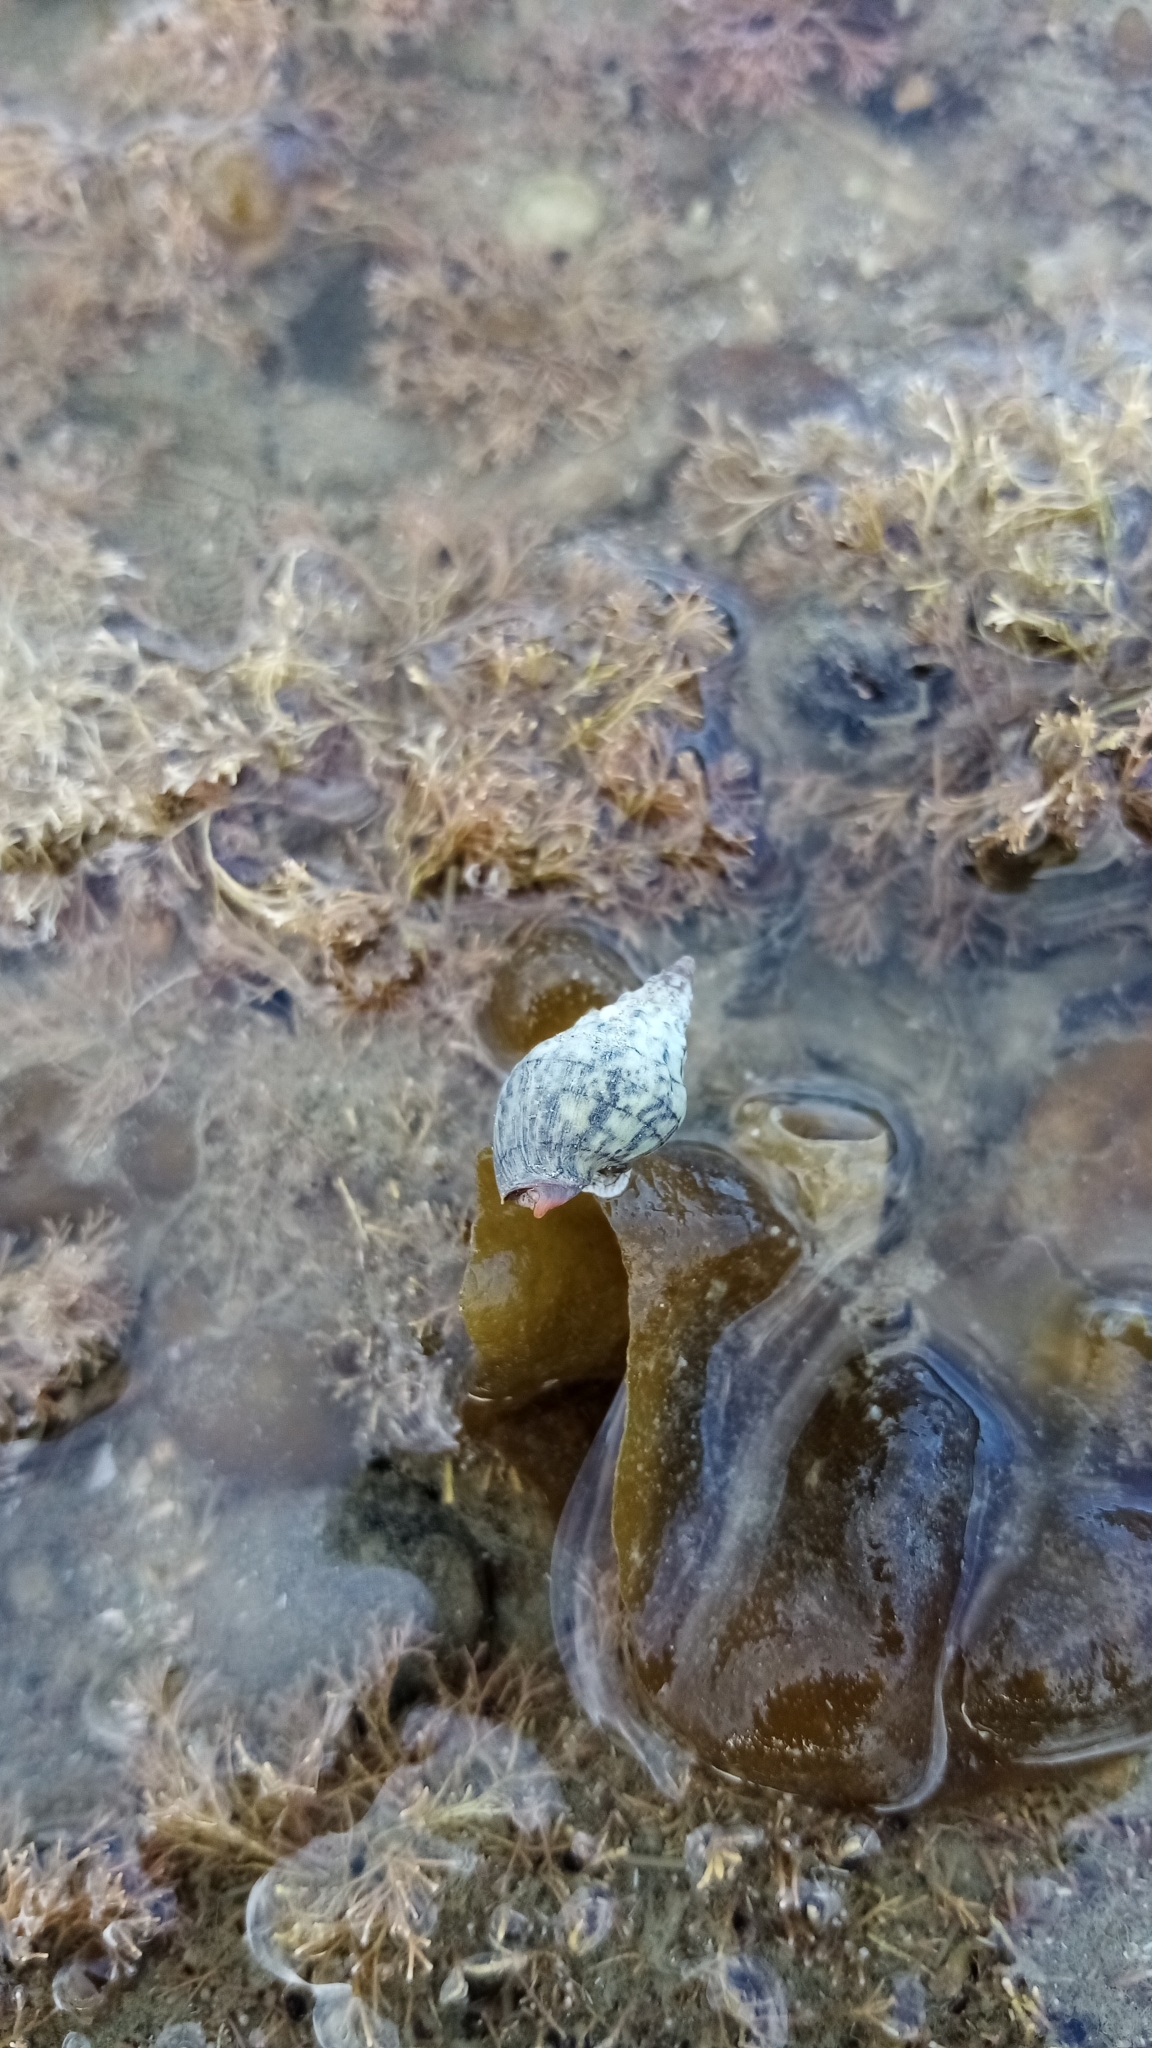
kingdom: Animalia
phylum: Mollusca
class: Gastropoda
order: Neogastropoda
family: Cominellidae
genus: Cominella
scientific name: Cominella virgata
